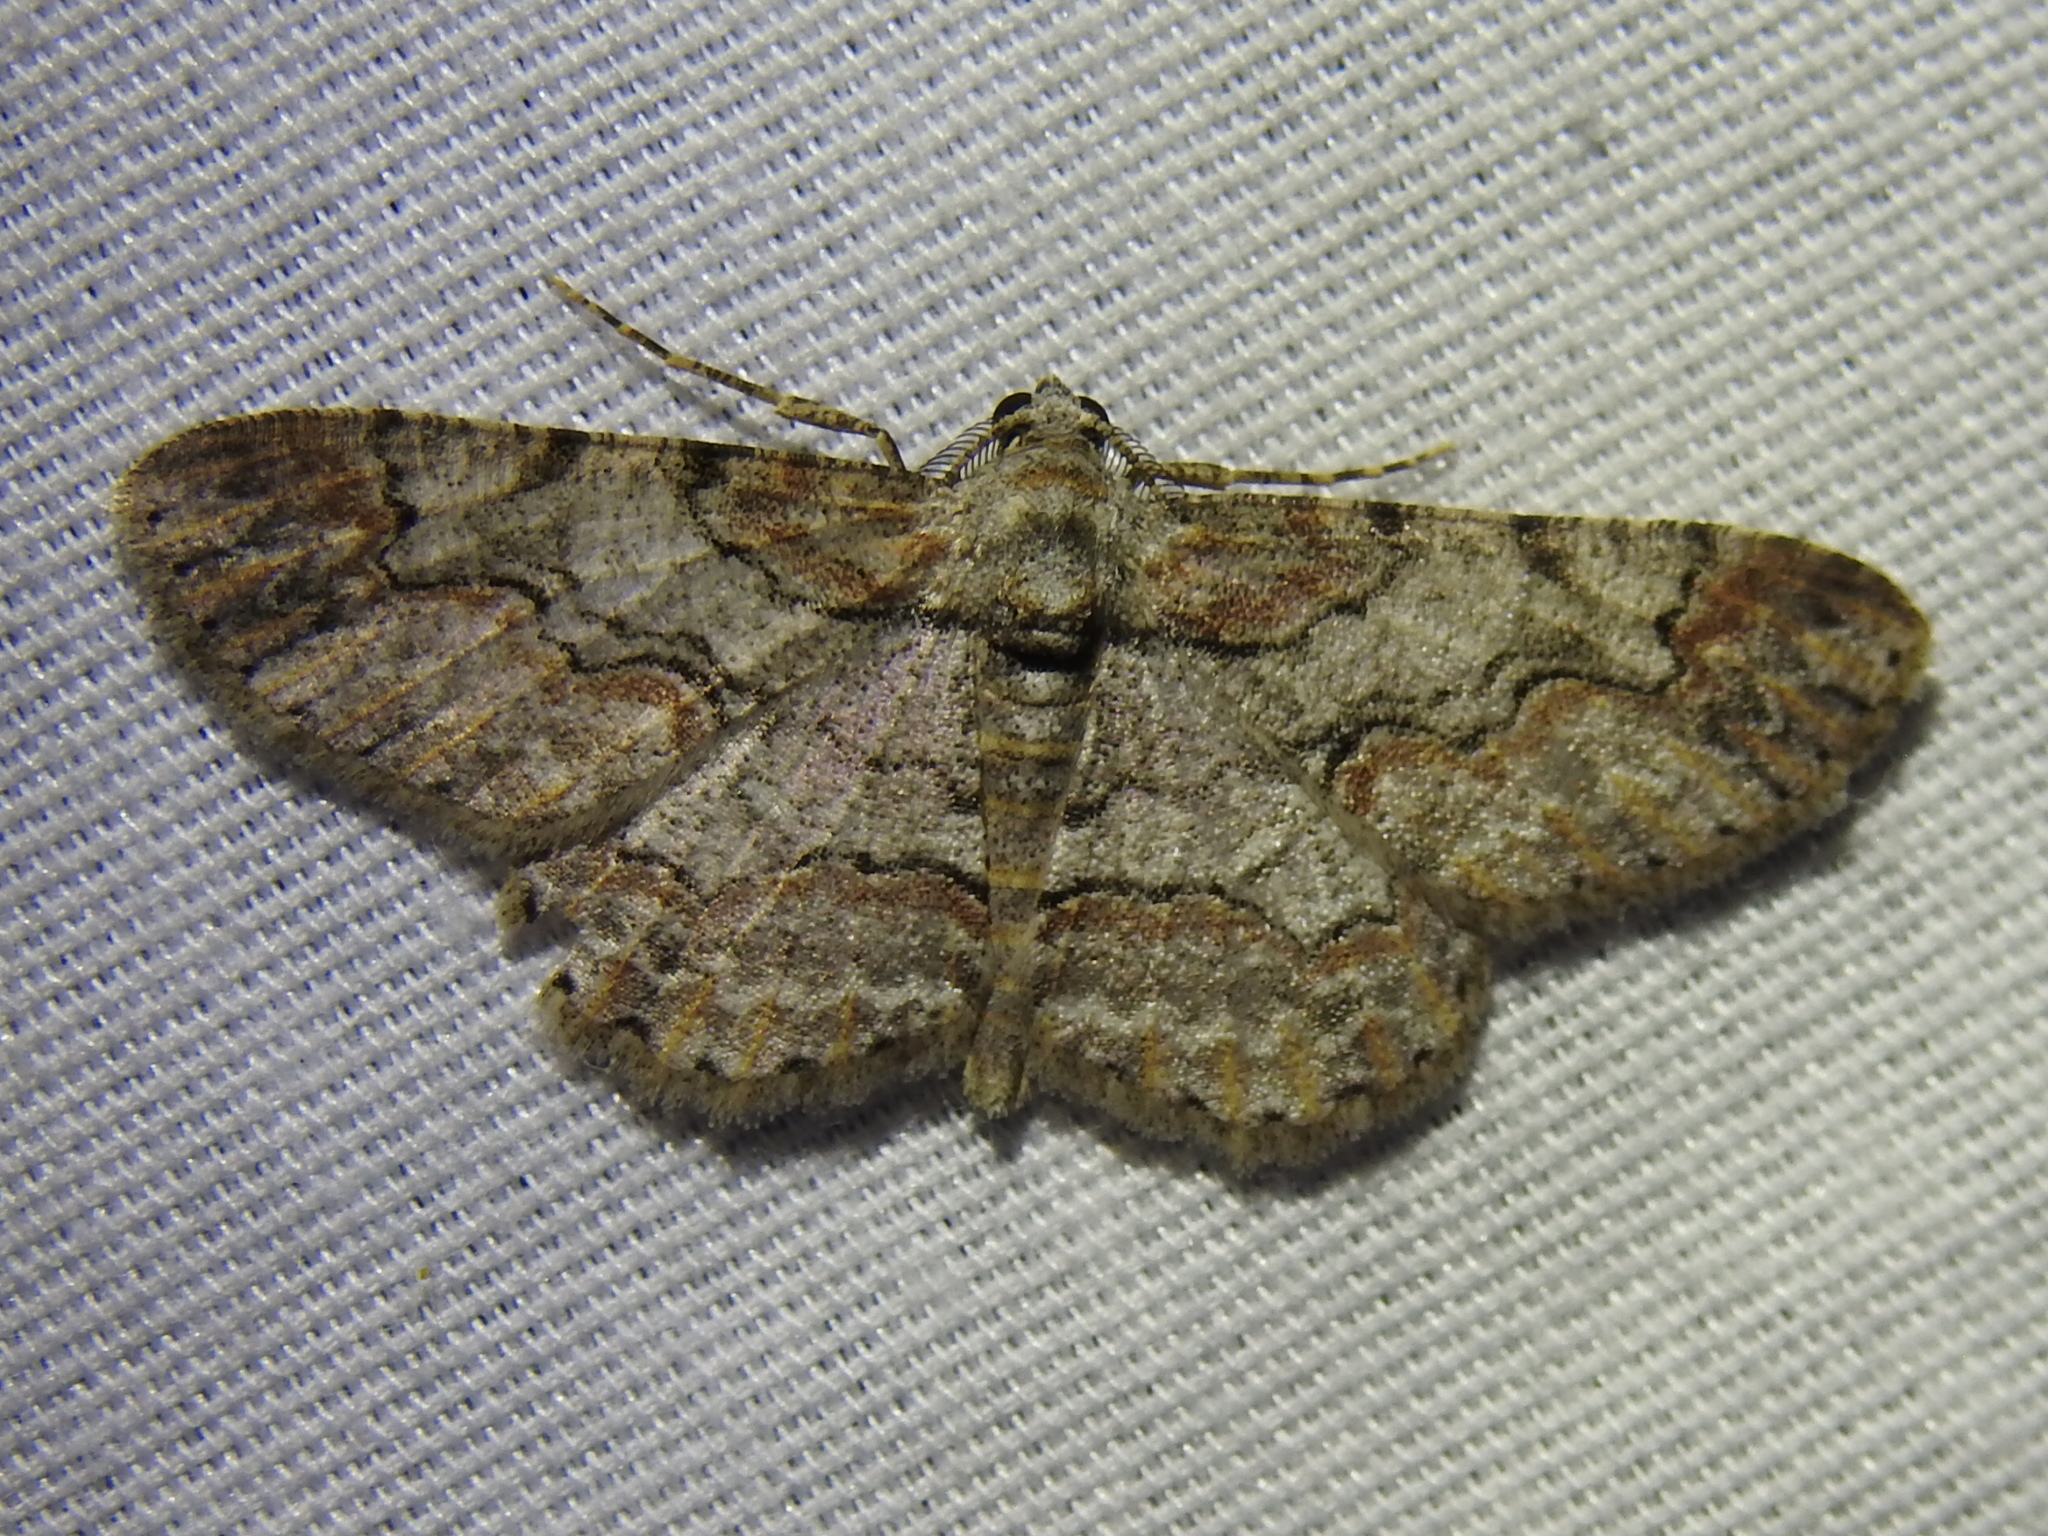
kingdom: Animalia
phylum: Arthropoda
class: Insecta
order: Lepidoptera
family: Geometridae
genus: Iridopsis
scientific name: Iridopsis defectaria
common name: Brown-shaded gray
